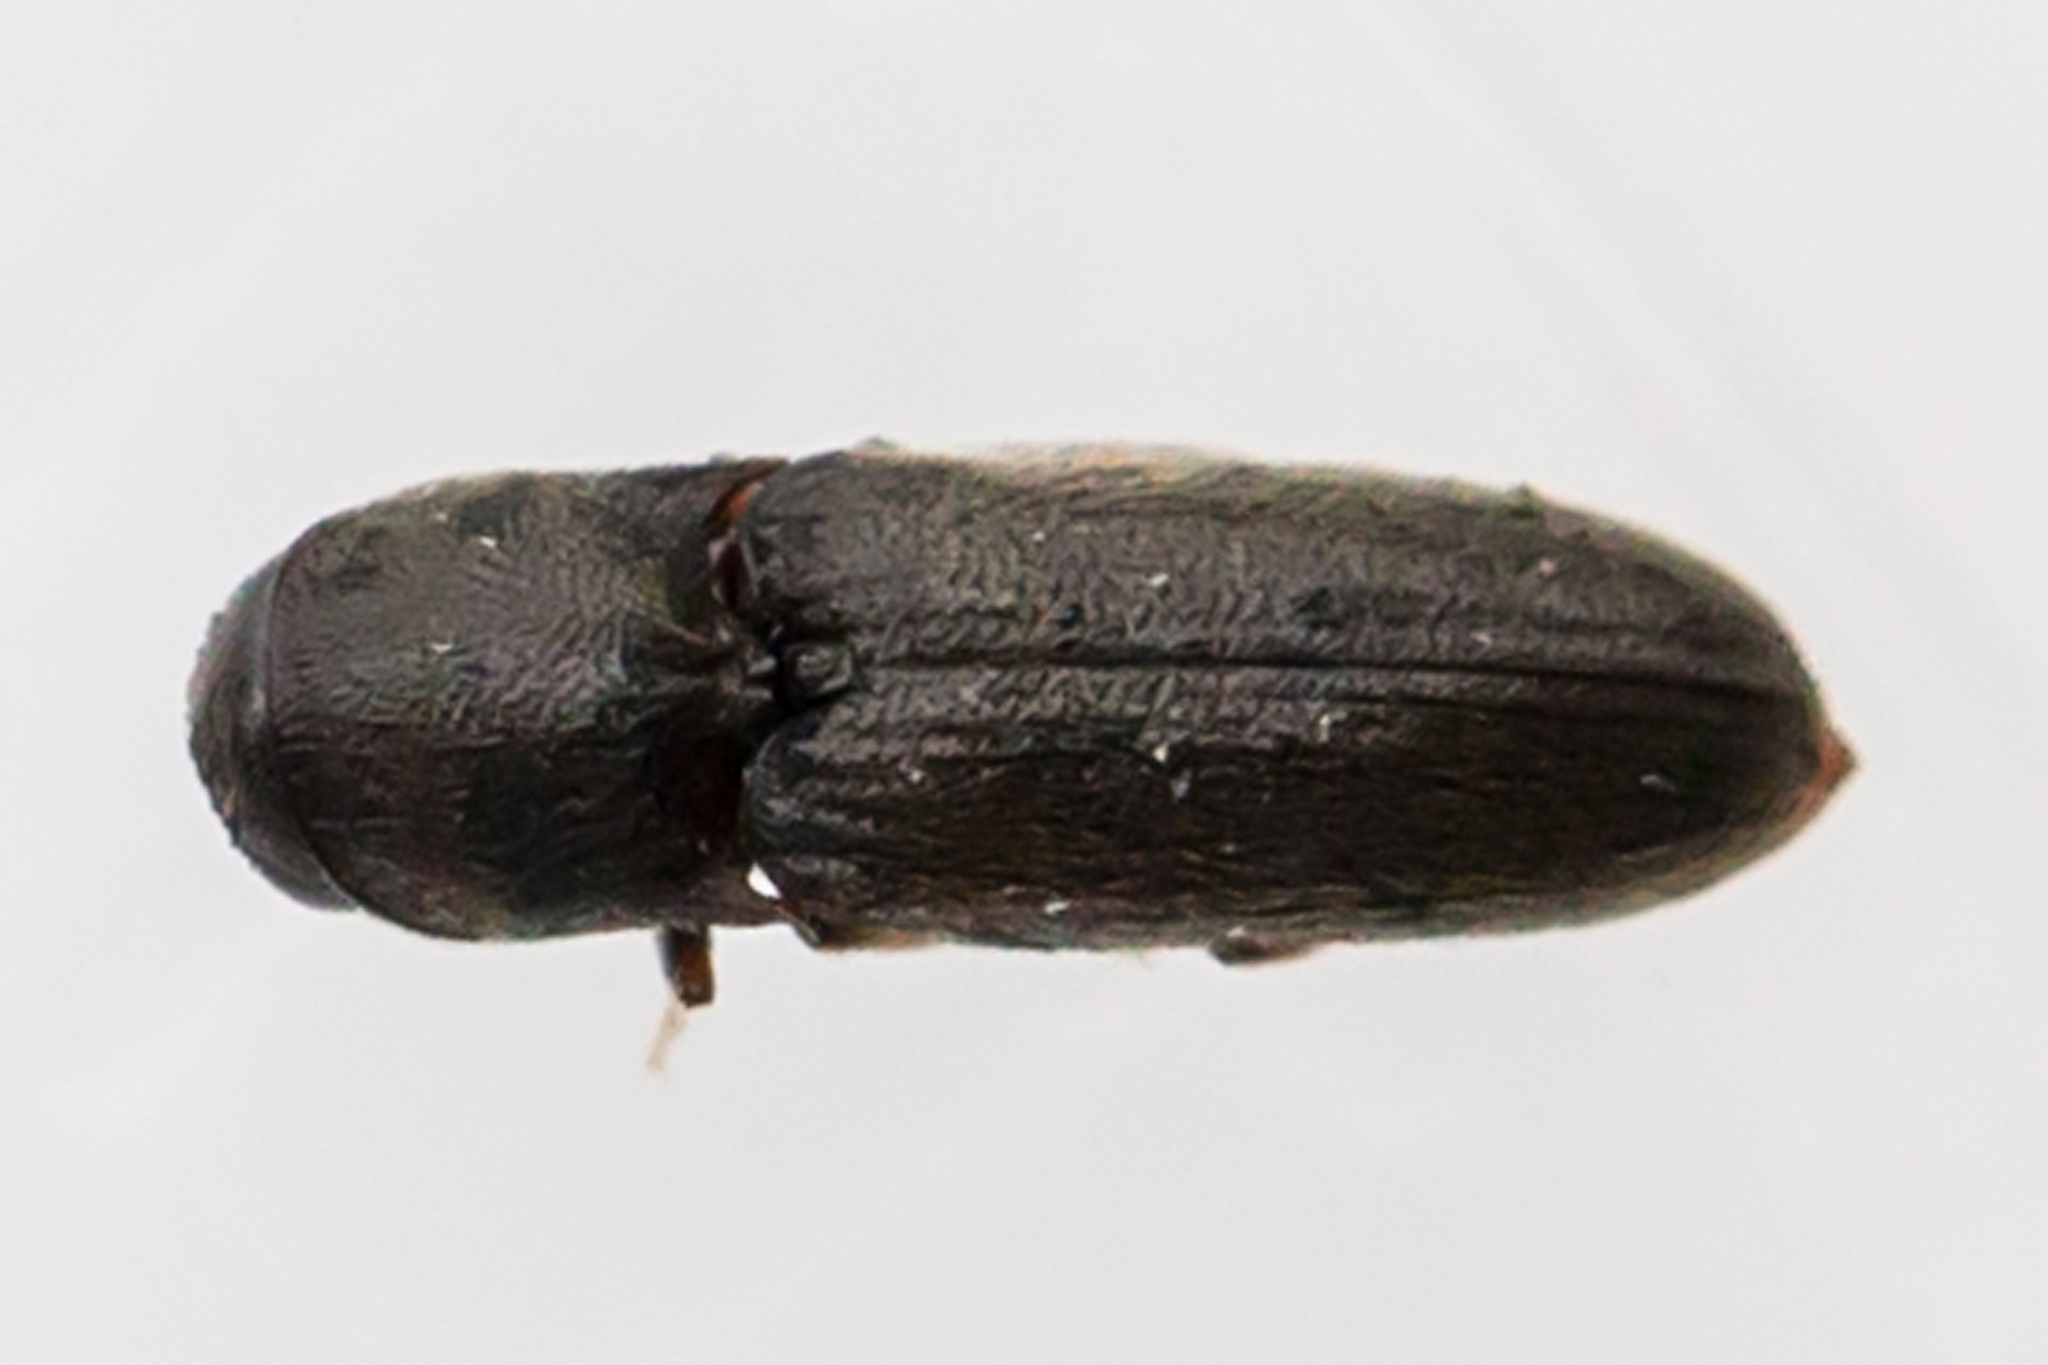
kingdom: Animalia
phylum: Arthropoda
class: Insecta
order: Coleoptera
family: Eucnemidae
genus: Rhagomicrus
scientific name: Rhagomicrus bonvouloiri
